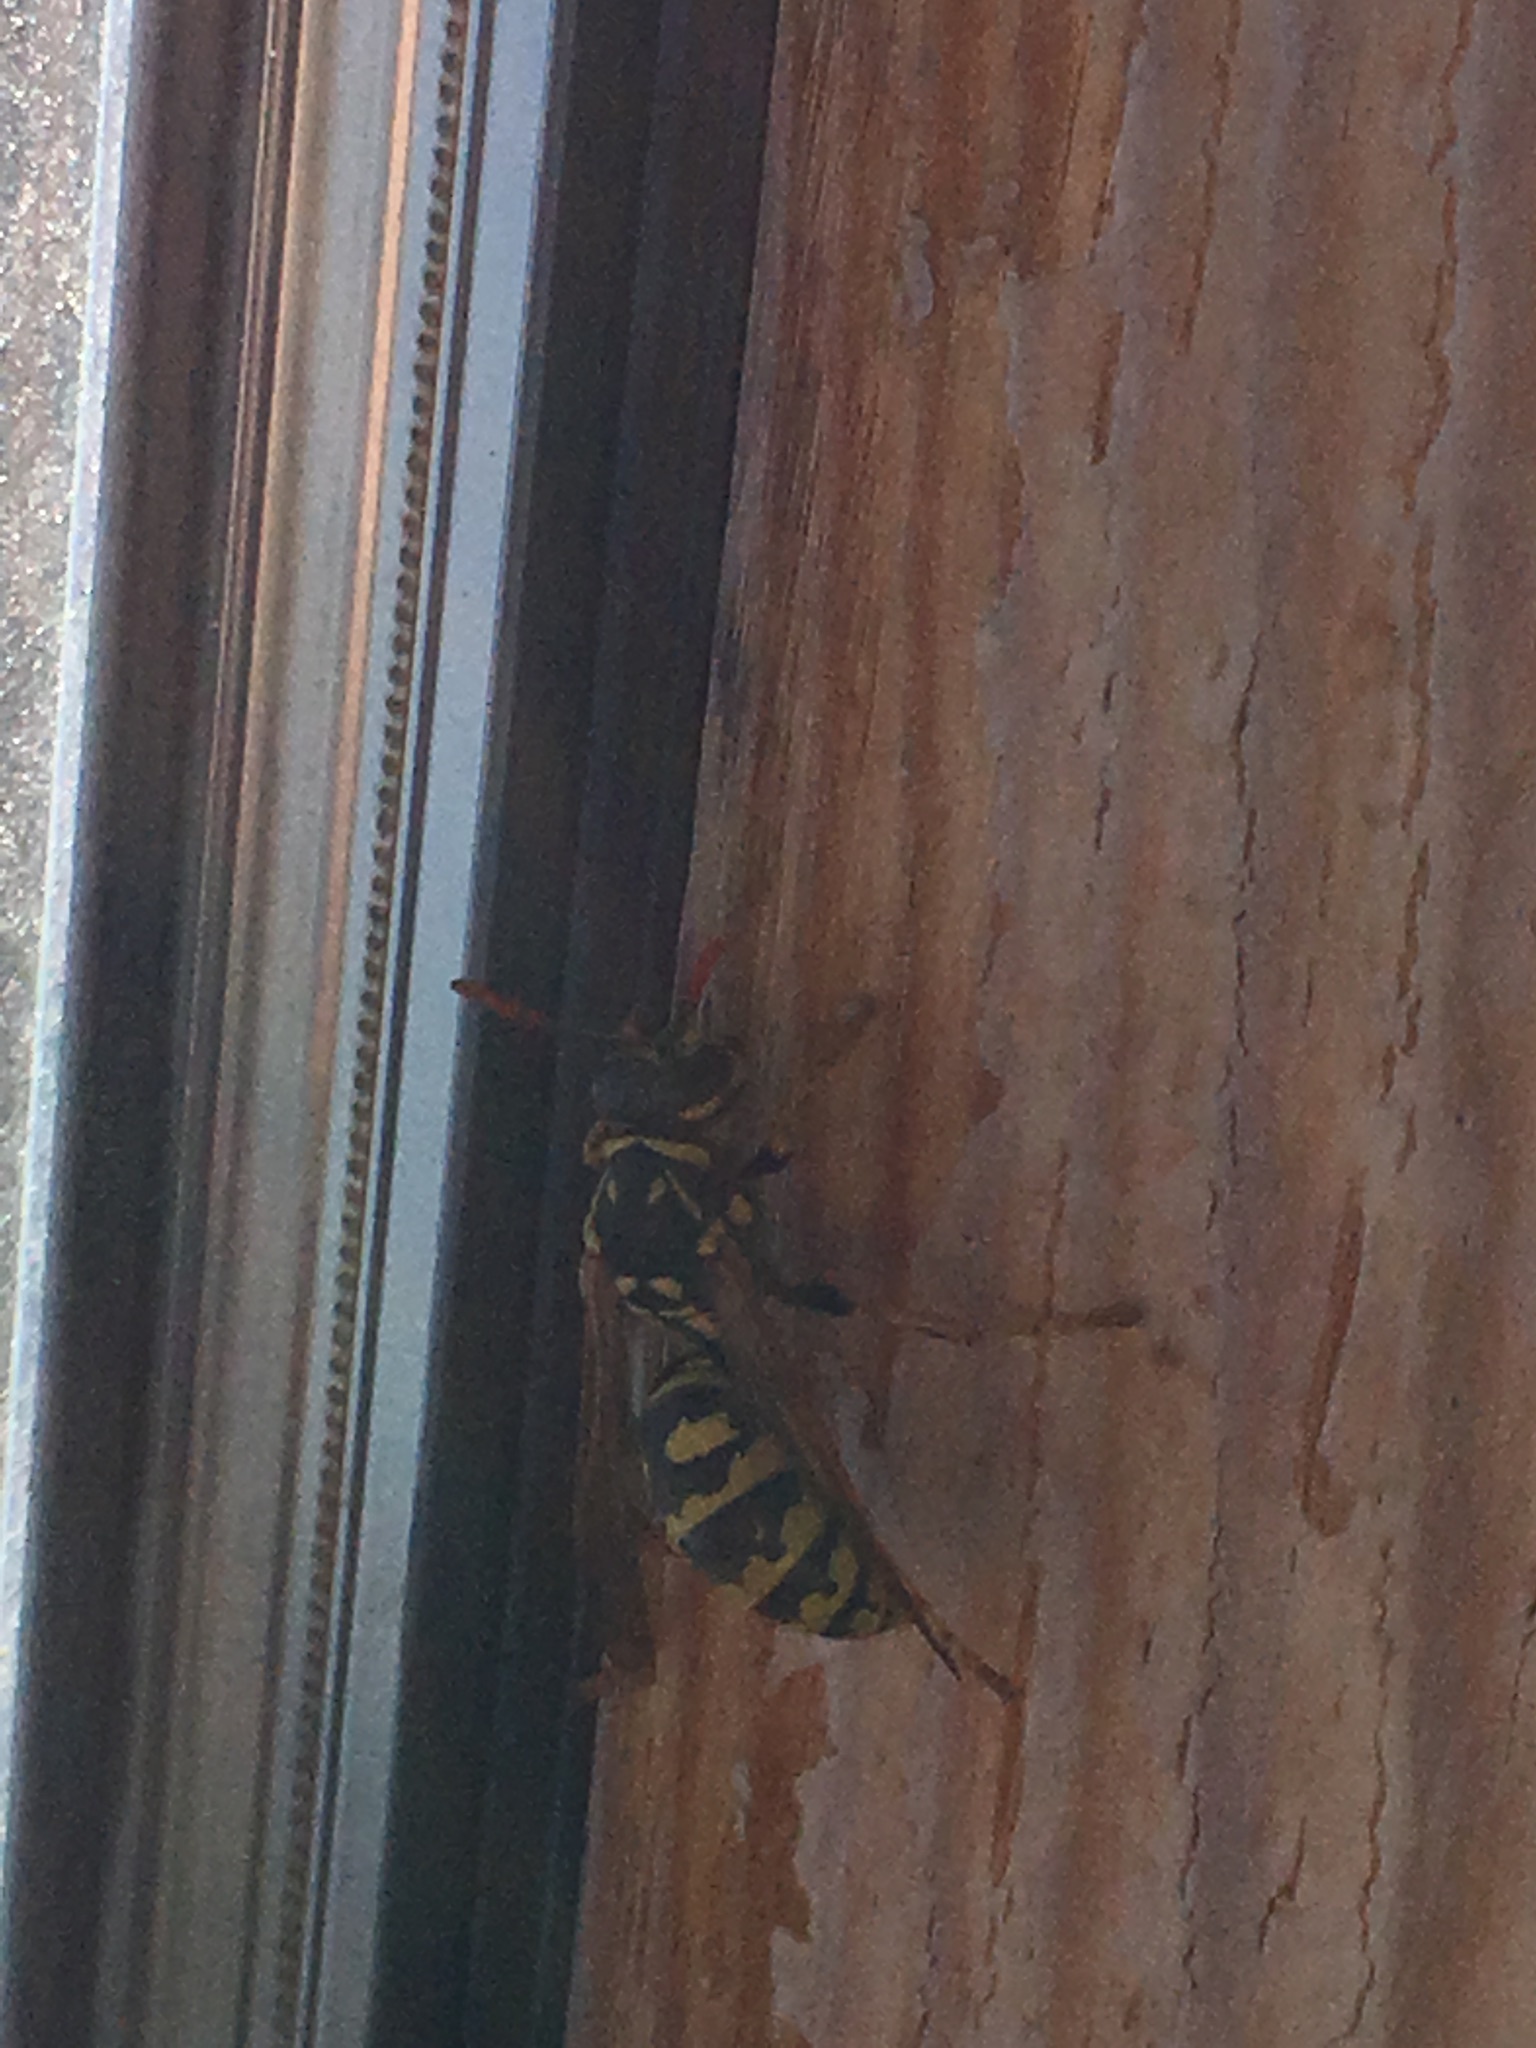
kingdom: Animalia
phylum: Arthropoda
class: Insecta
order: Hymenoptera
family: Eumenidae
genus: Polistes
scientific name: Polistes dominula
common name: Paper wasp
